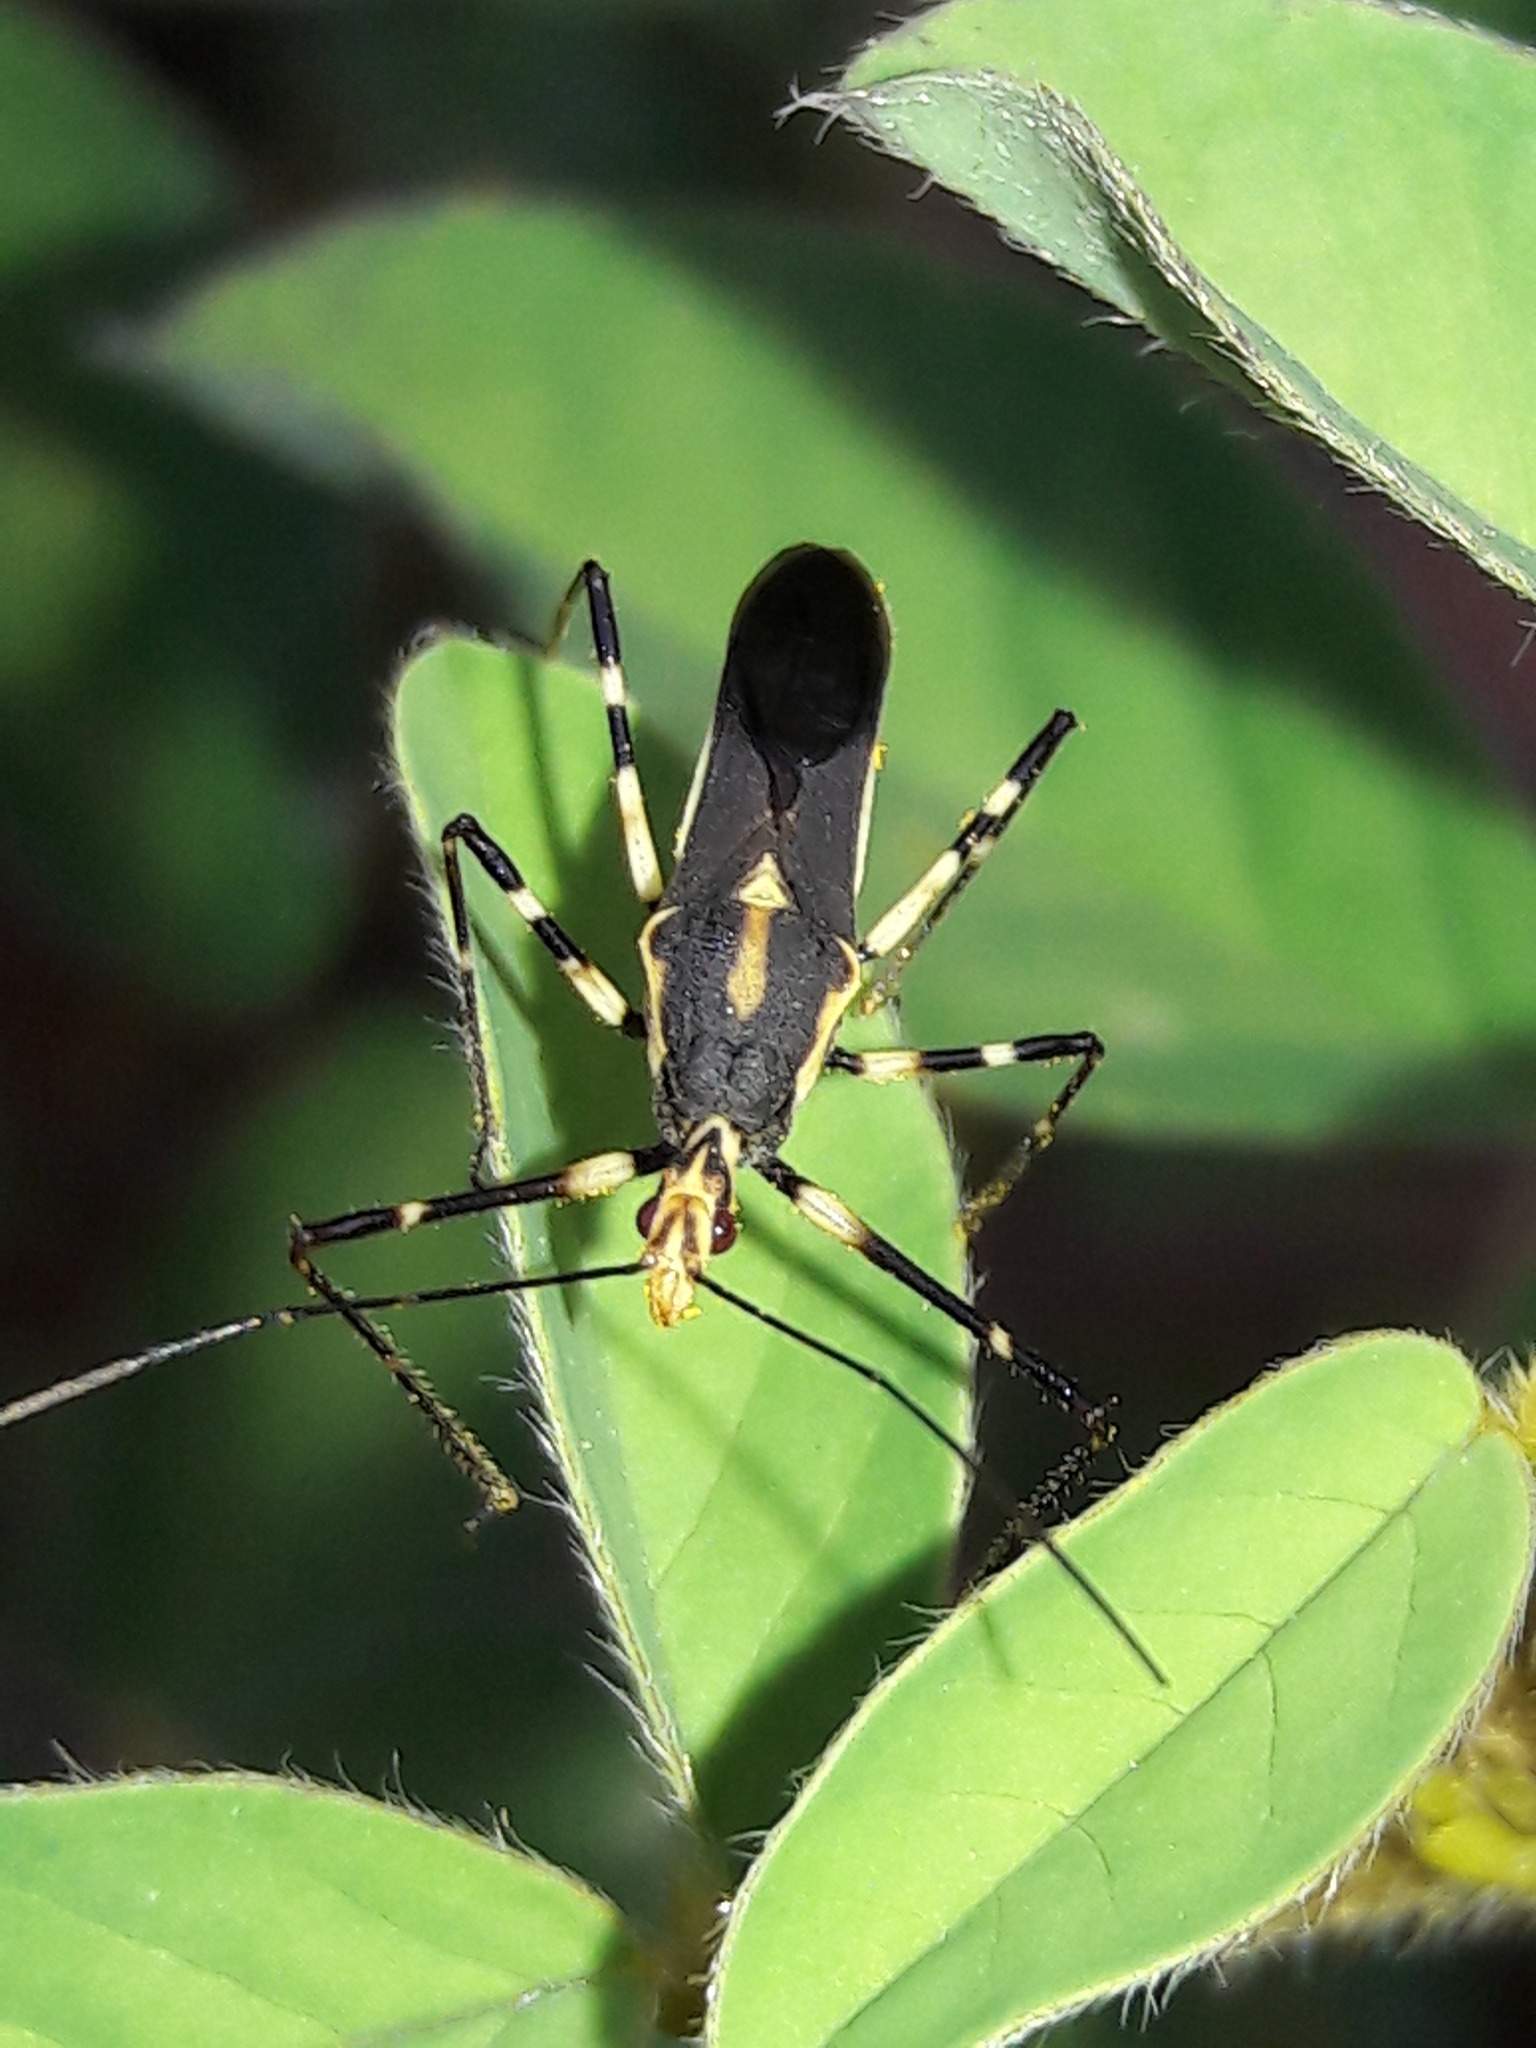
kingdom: Animalia
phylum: Arthropoda
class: Insecta
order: Hemiptera
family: Reduviidae
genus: Zelus
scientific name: Zelus laticornis
